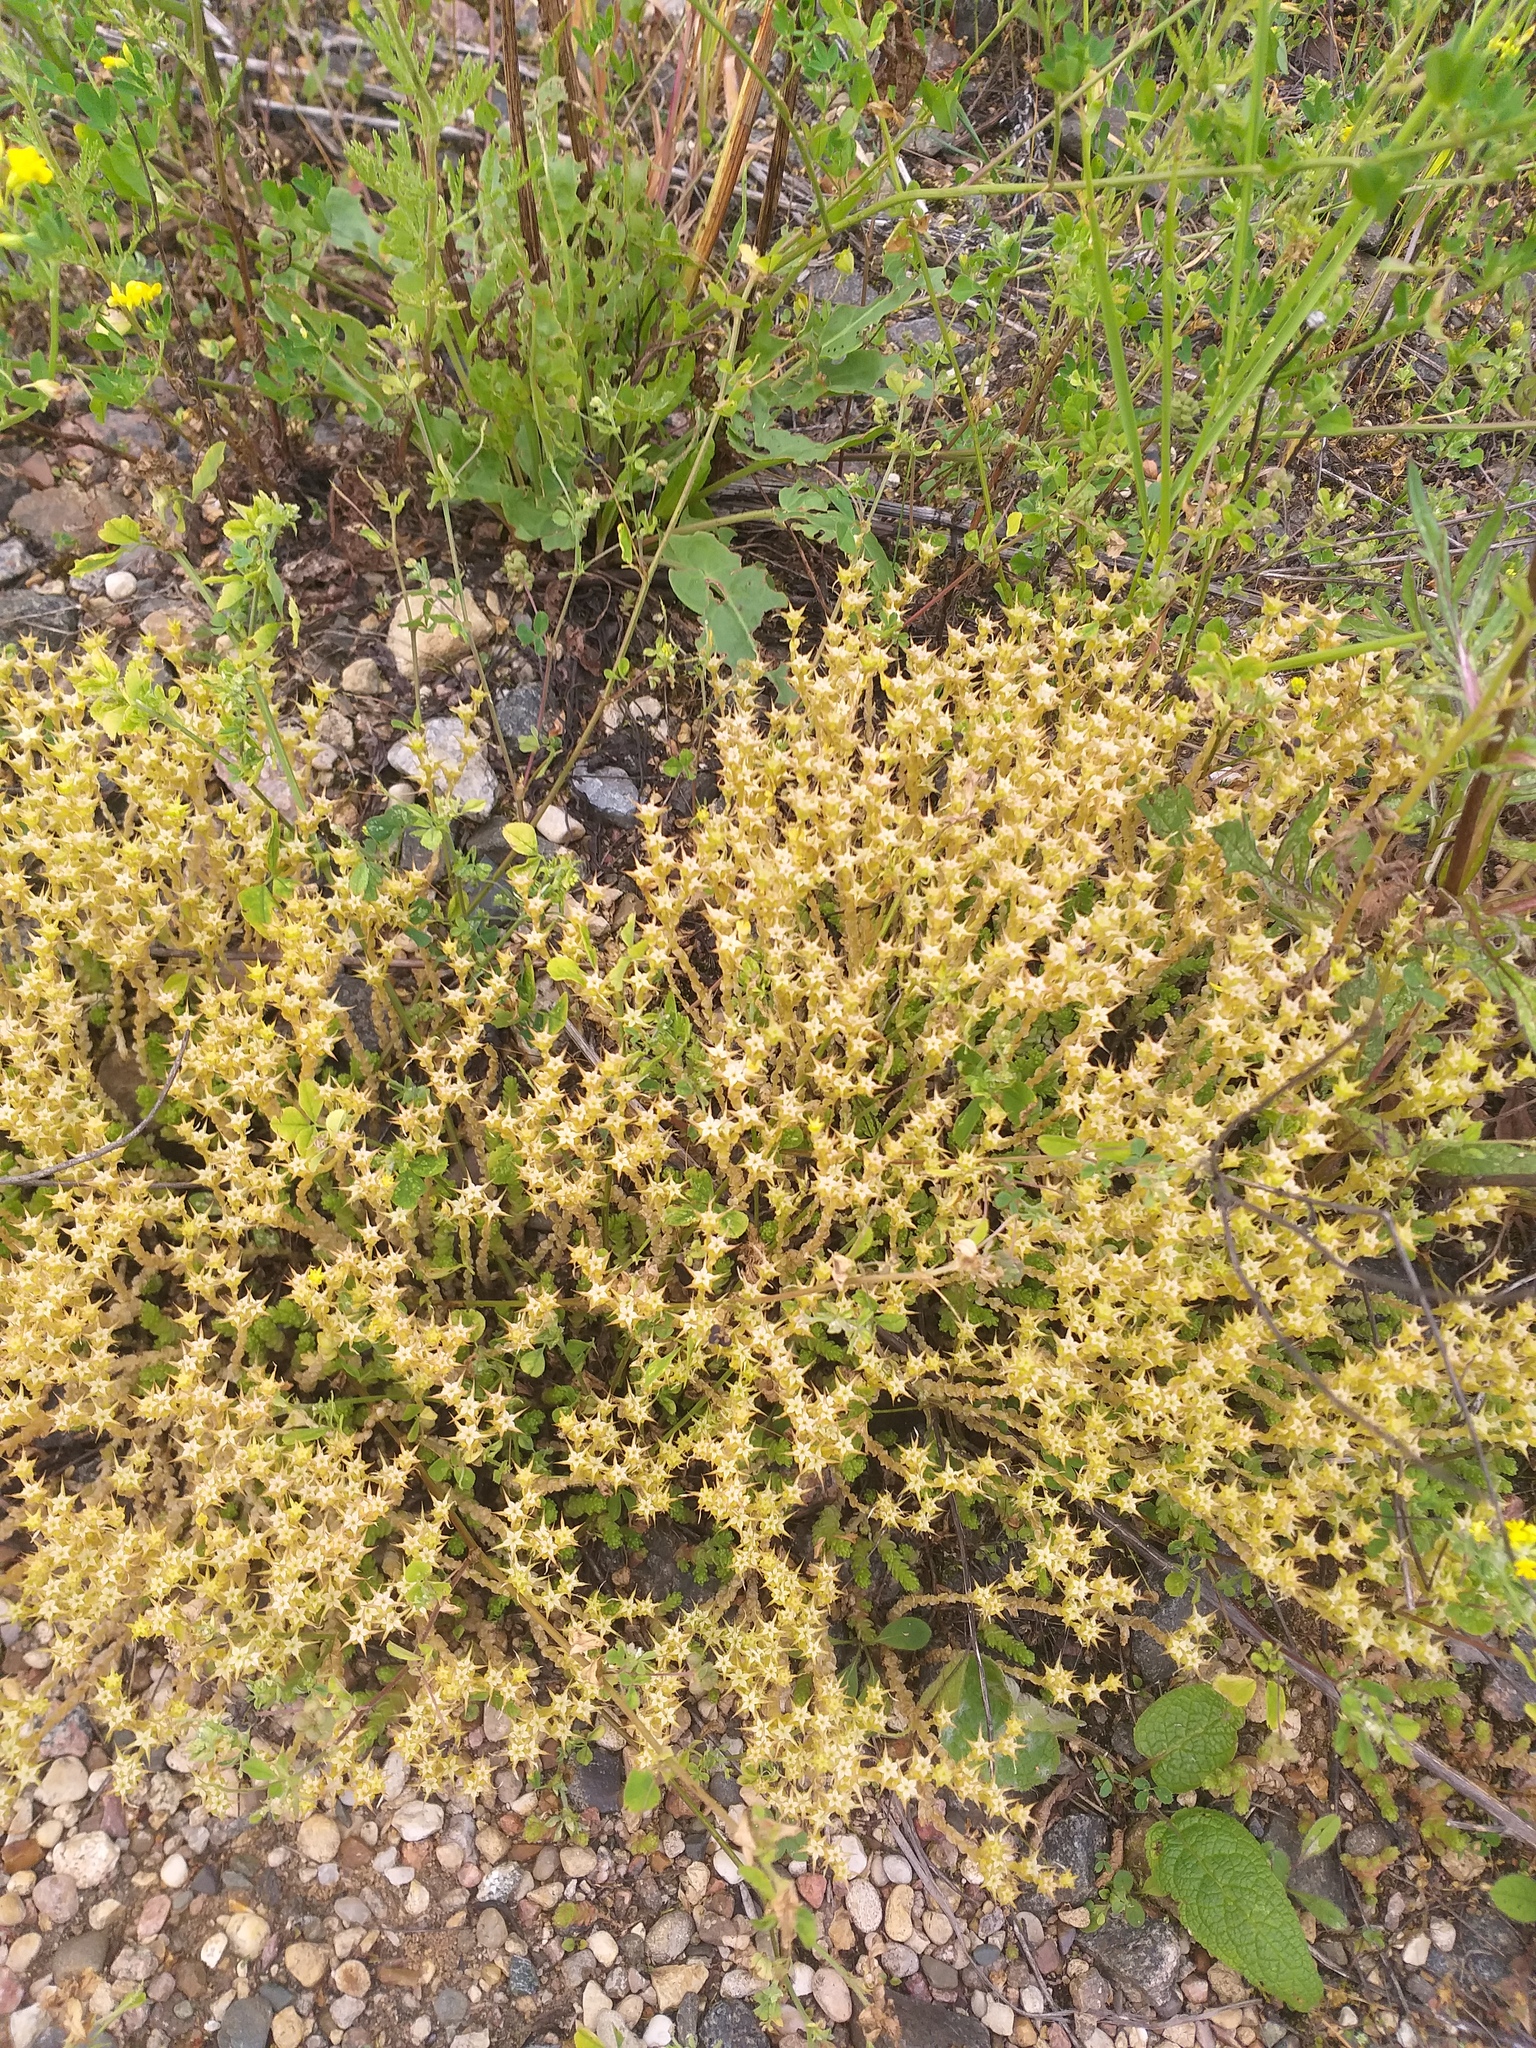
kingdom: Plantae
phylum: Tracheophyta
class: Magnoliopsida
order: Saxifragales
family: Crassulaceae
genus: Sedum
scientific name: Sedum acre
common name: Biting stonecrop
